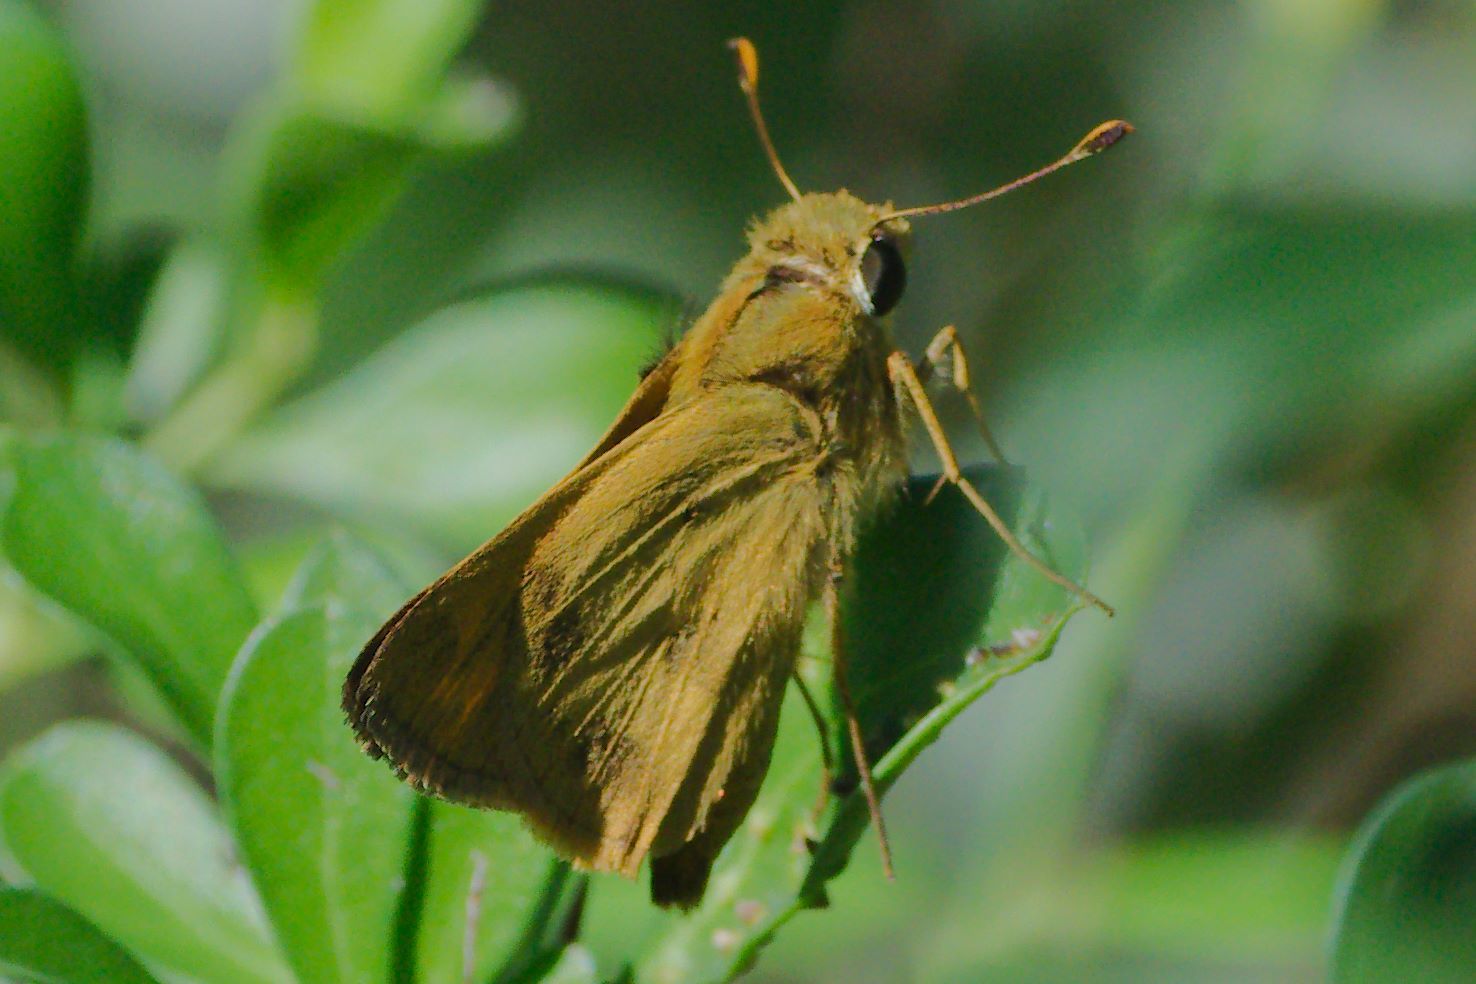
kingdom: Animalia
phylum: Arthropoda
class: Insecta
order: Lepidoptera
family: Hesperiidae
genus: Polites
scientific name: Polites vibex
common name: Whirlabout
